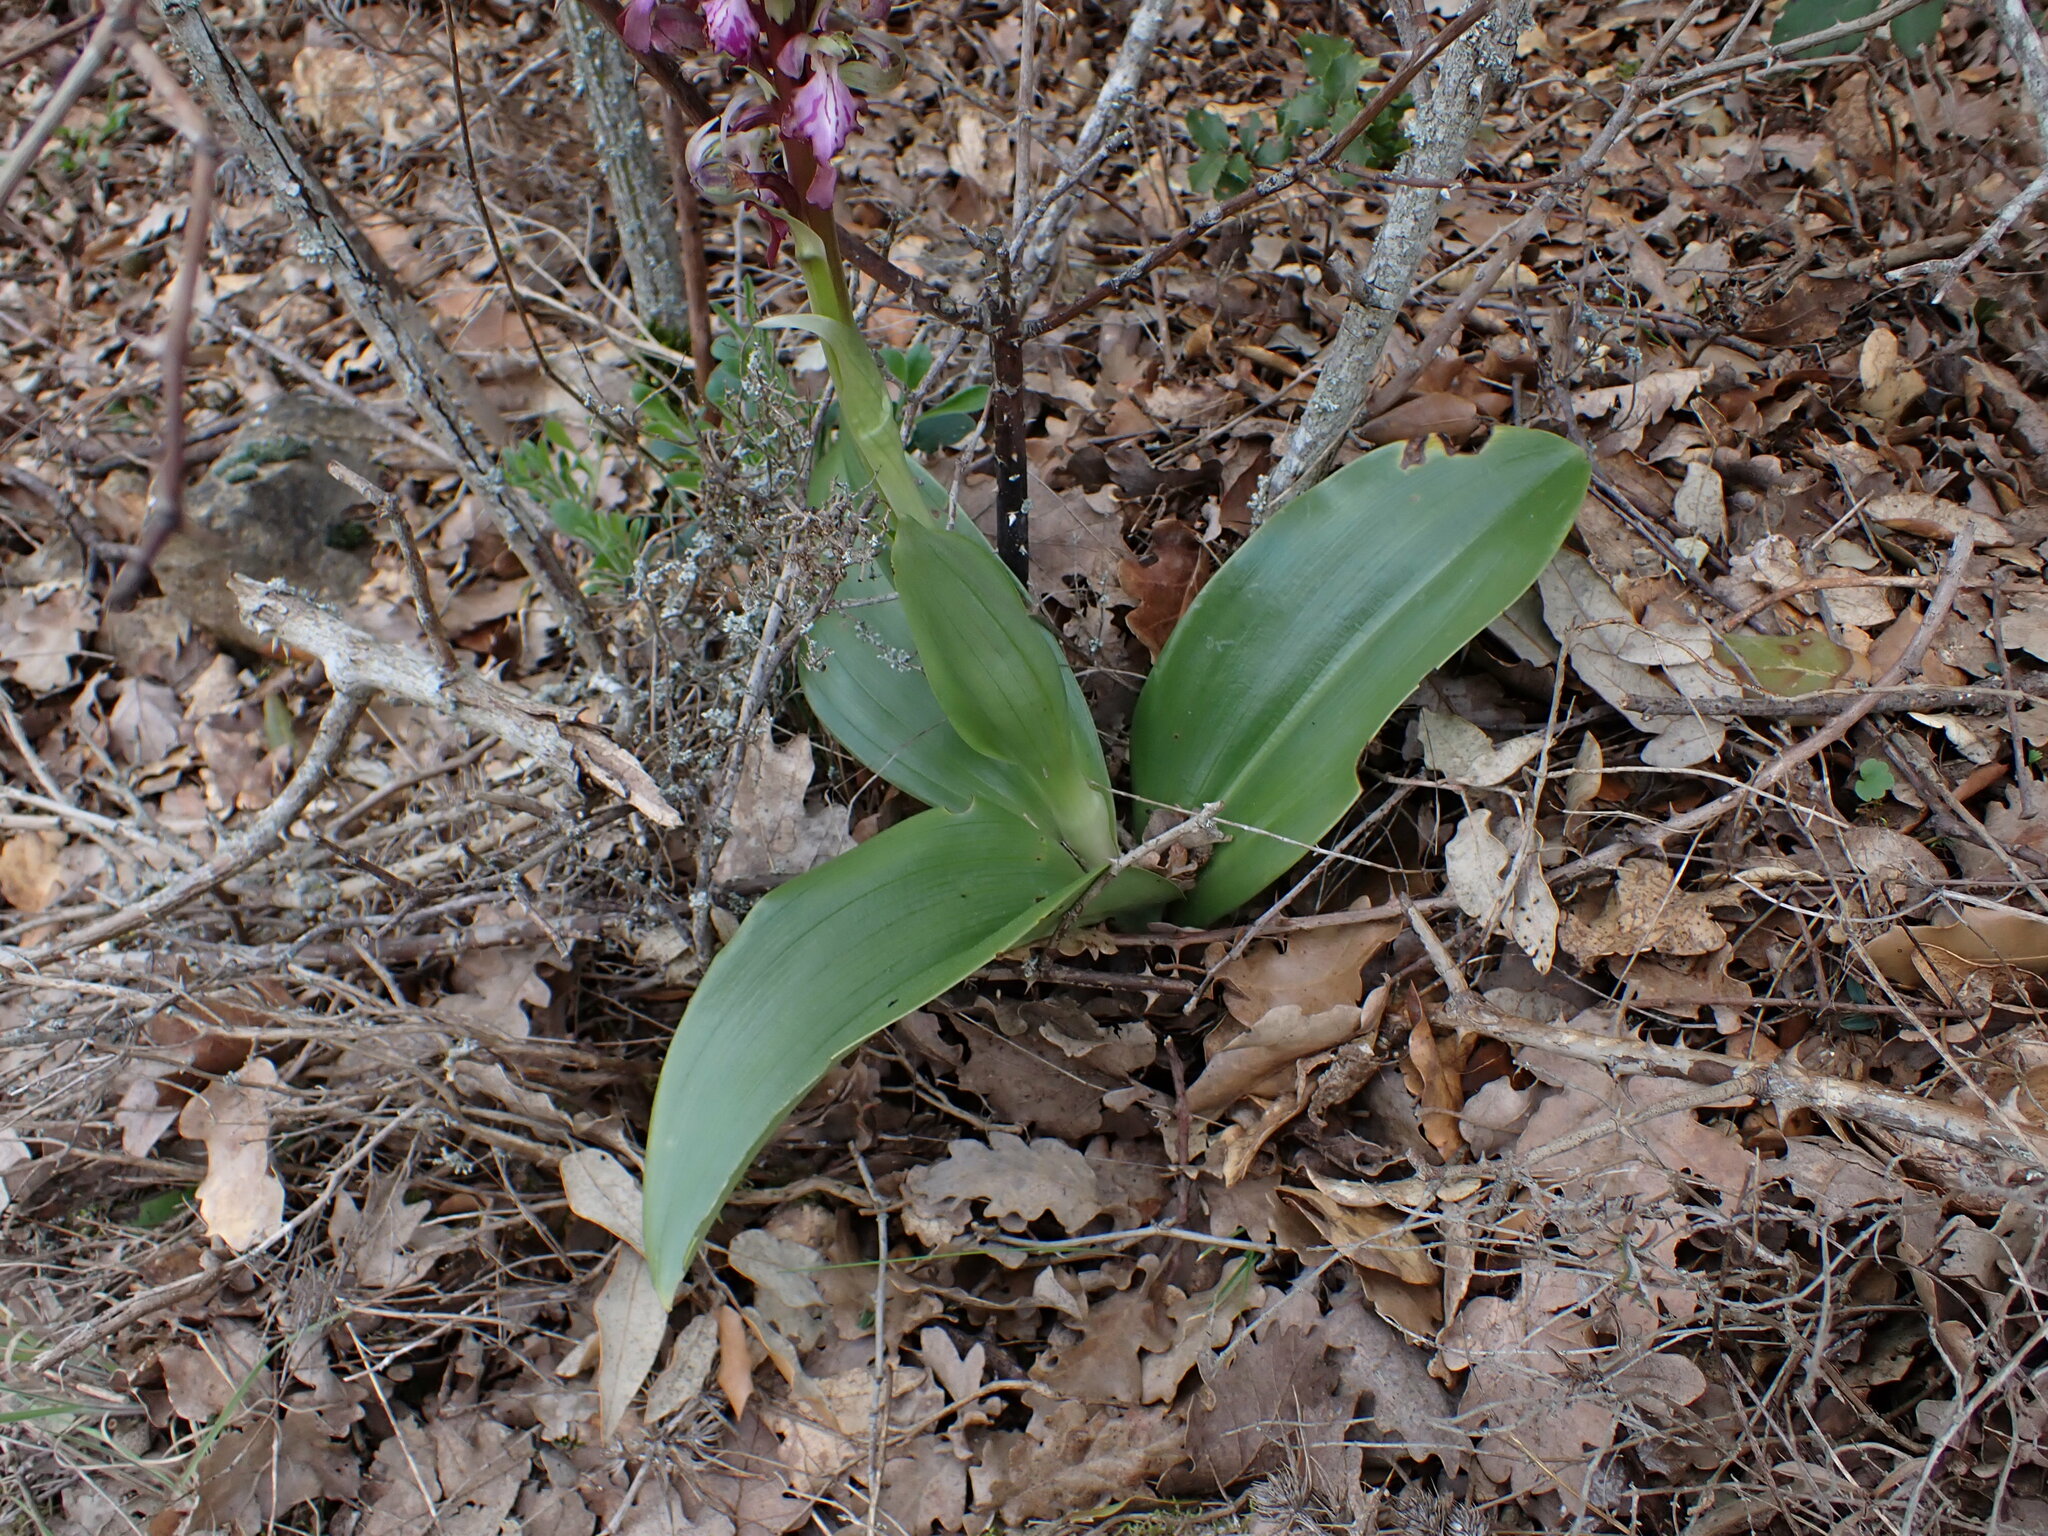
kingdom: Plantae
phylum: Tracheophyta
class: Liliopsida
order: Asparagales
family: Orchidaceae
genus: Himantoglossum
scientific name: Himantoglossum robertianum
